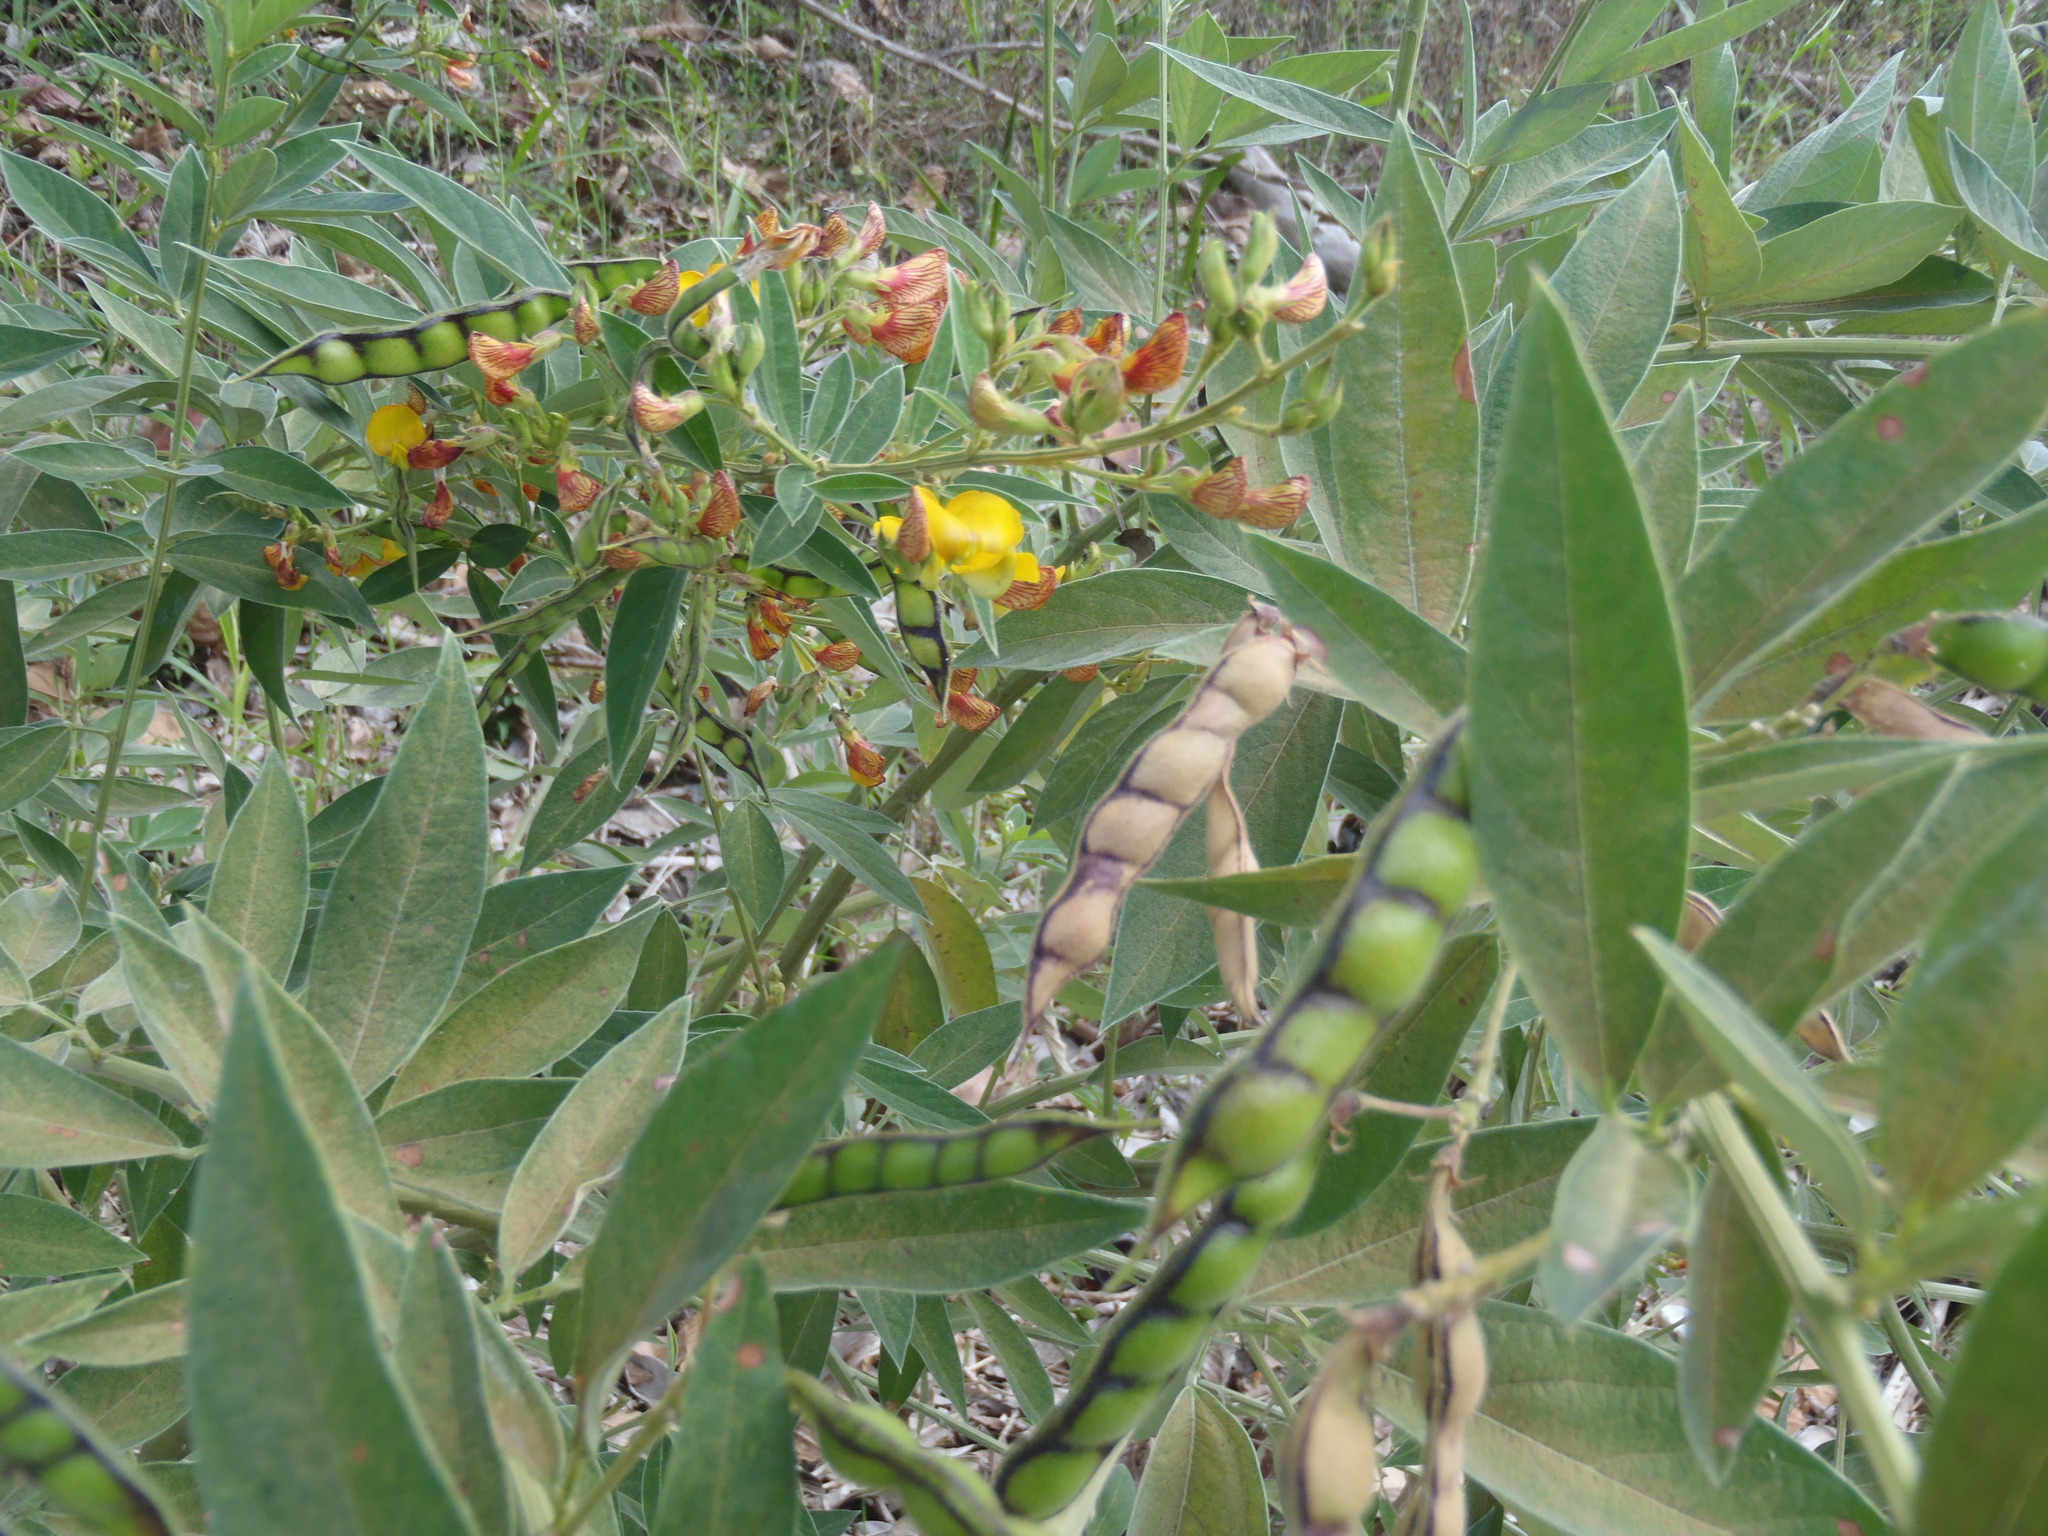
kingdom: Plantae
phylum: Tracheophyta
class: Magnoliopsida
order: Fabales
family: Fabaceae
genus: Cajanus
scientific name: Cajanus cajan
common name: Pigeonpea
